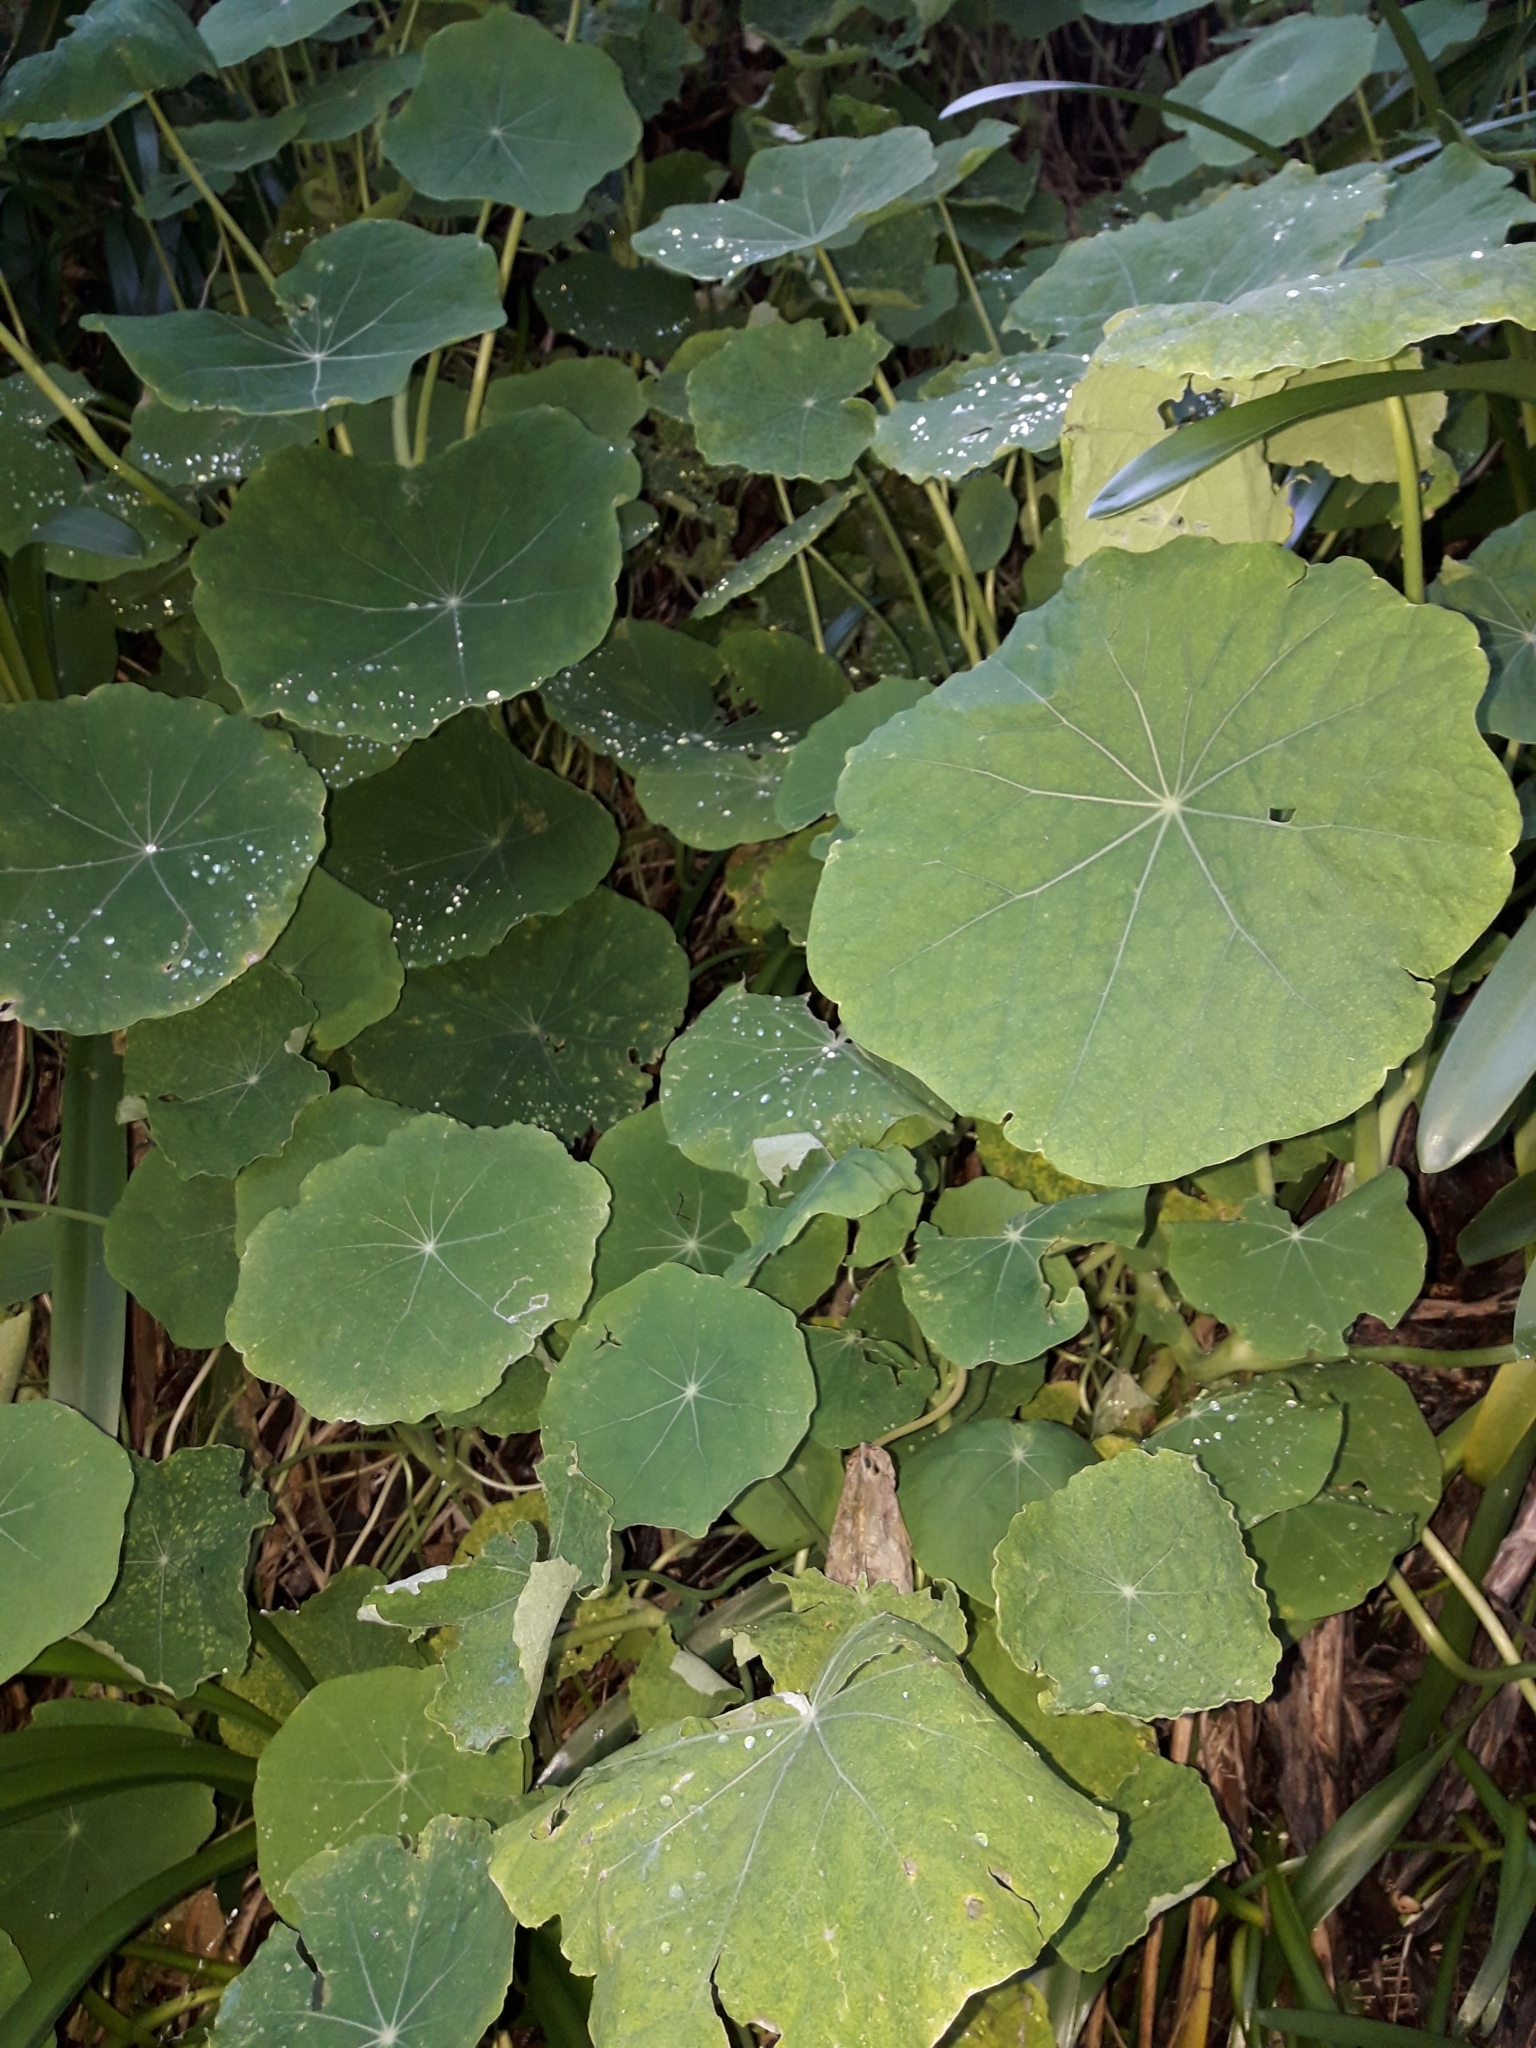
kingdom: Plantae
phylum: Tracheophyta
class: Magnoliopsida
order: Brassicales
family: Tropaeolaceae
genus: Tropaeolum
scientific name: Tropaeolum majus
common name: Nasturtium
